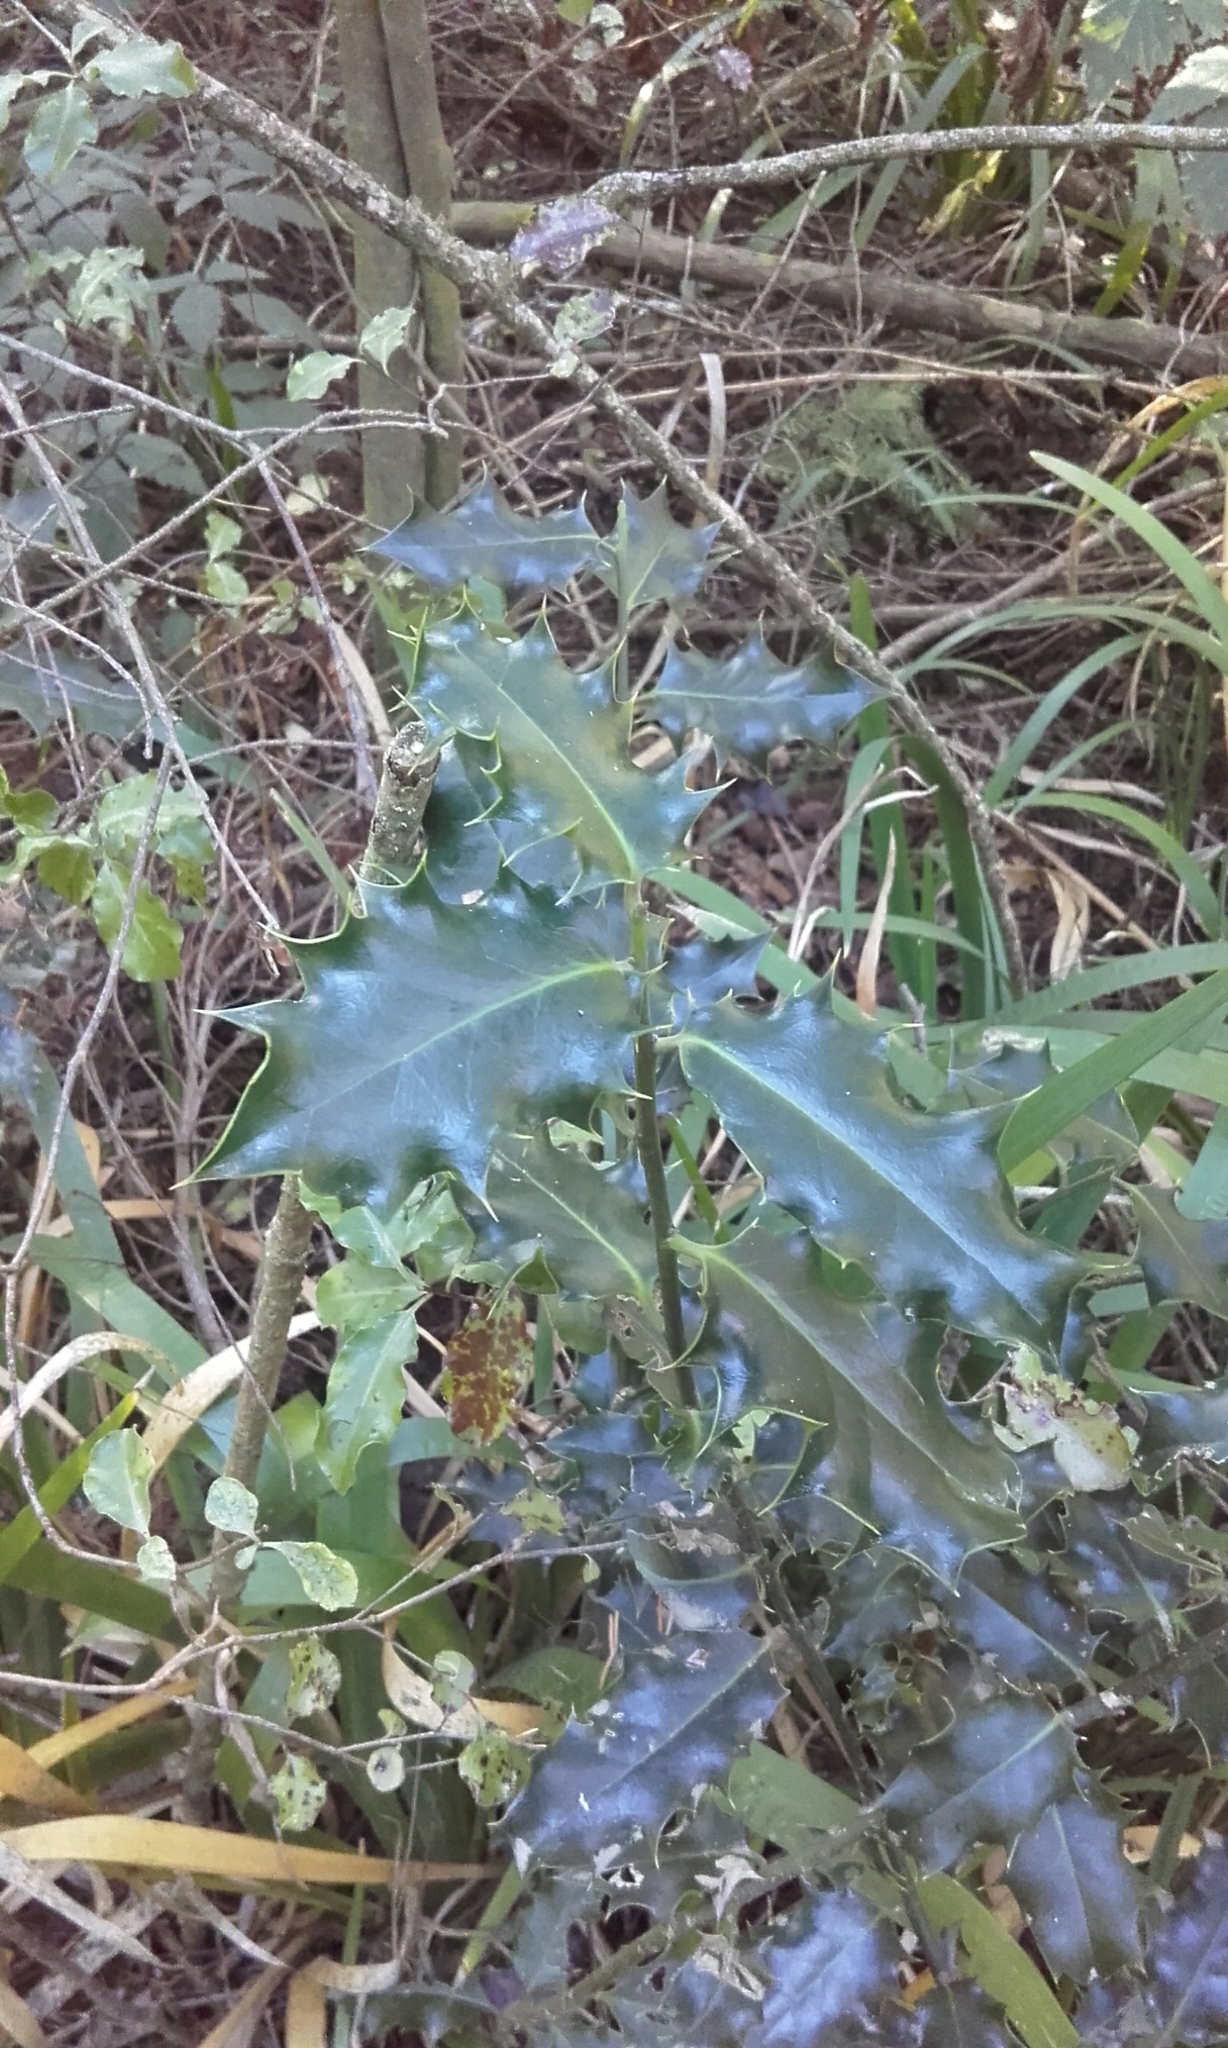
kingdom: Plantae
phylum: Tracheophyta
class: Magnoliopsida
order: Aquifoliales
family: Aquifoliaceae
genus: Ilex
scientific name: Ilex aquifolium
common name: English holly
